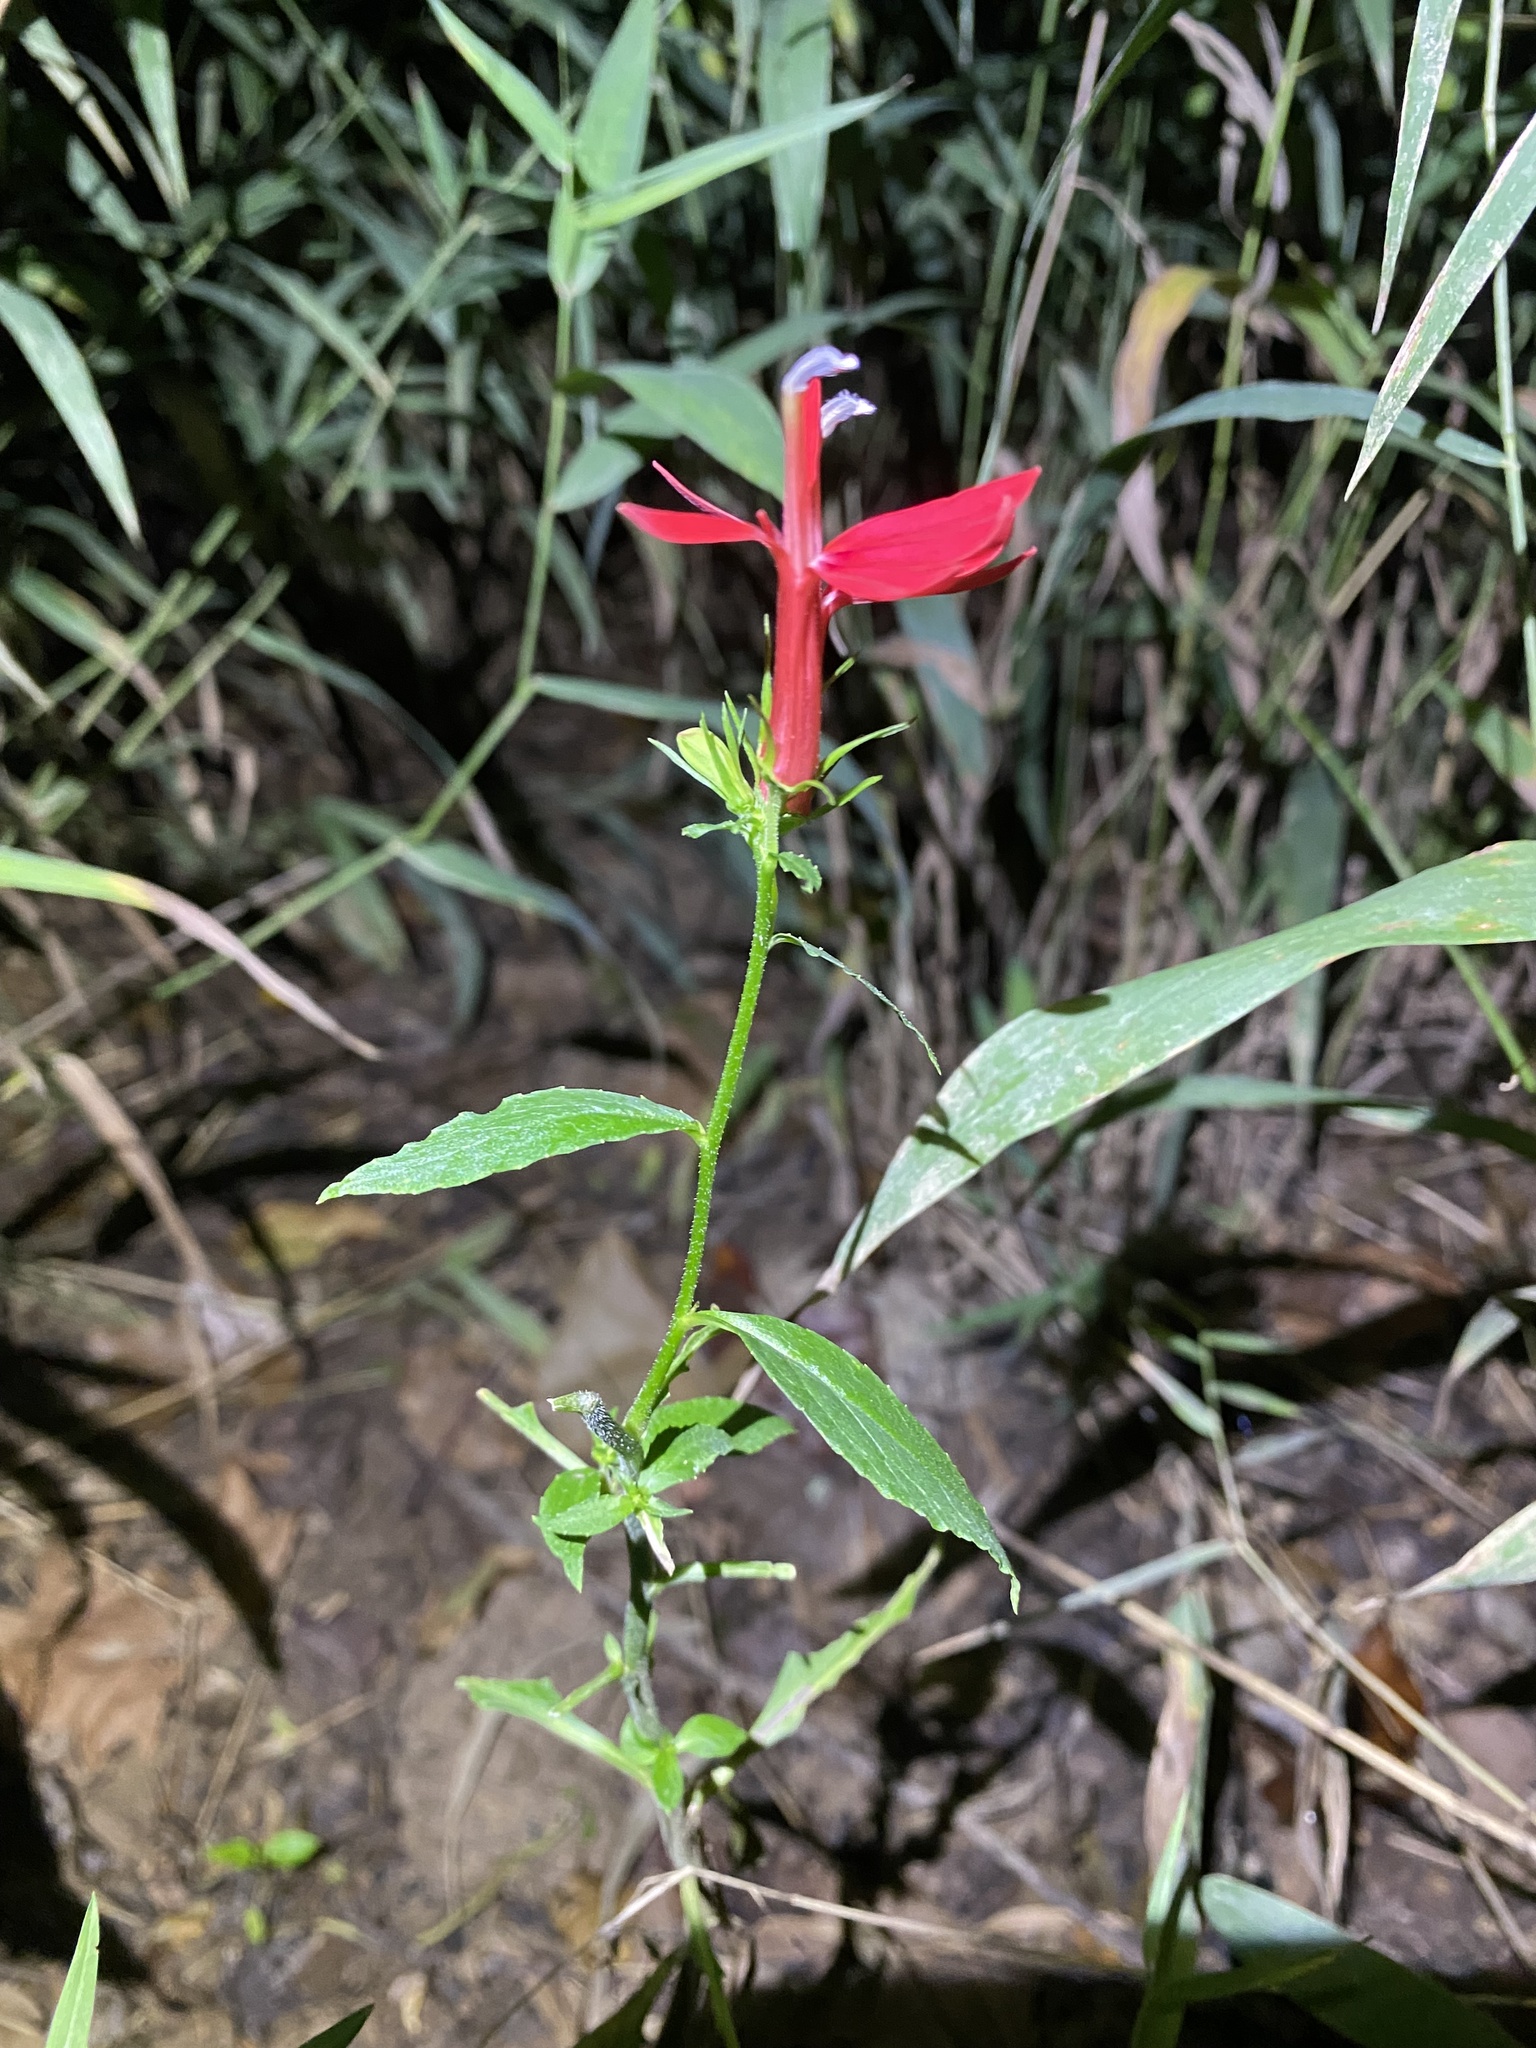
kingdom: Plantae
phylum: Tracheophyta
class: Magnoliopsida
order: Asterales
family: Campanulaceae
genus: Lobelia
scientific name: Lobelia cardinalis
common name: Cardinal flower
